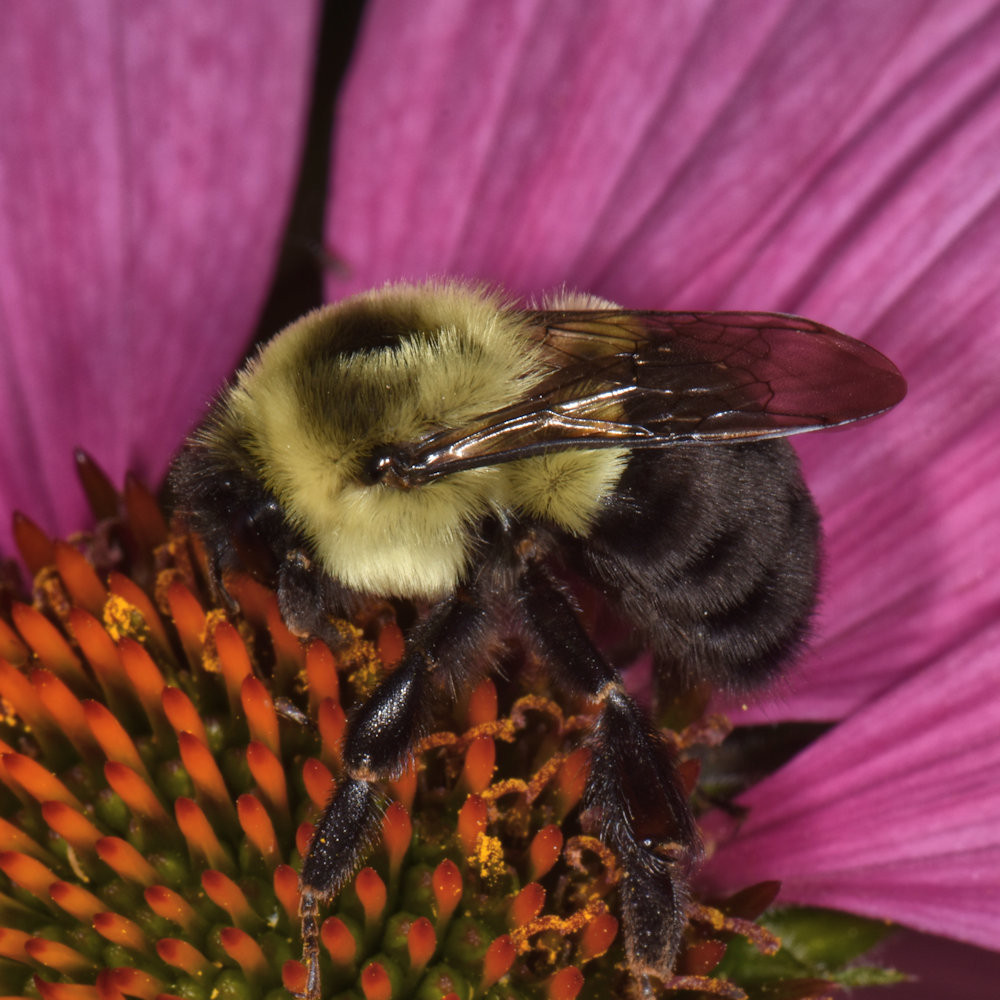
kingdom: Animalia
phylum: Arthropoda
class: Insecta
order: Hymenoptera
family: Apidae
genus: Bombus
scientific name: Bombus impatiens
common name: Common eastern bumble bee
